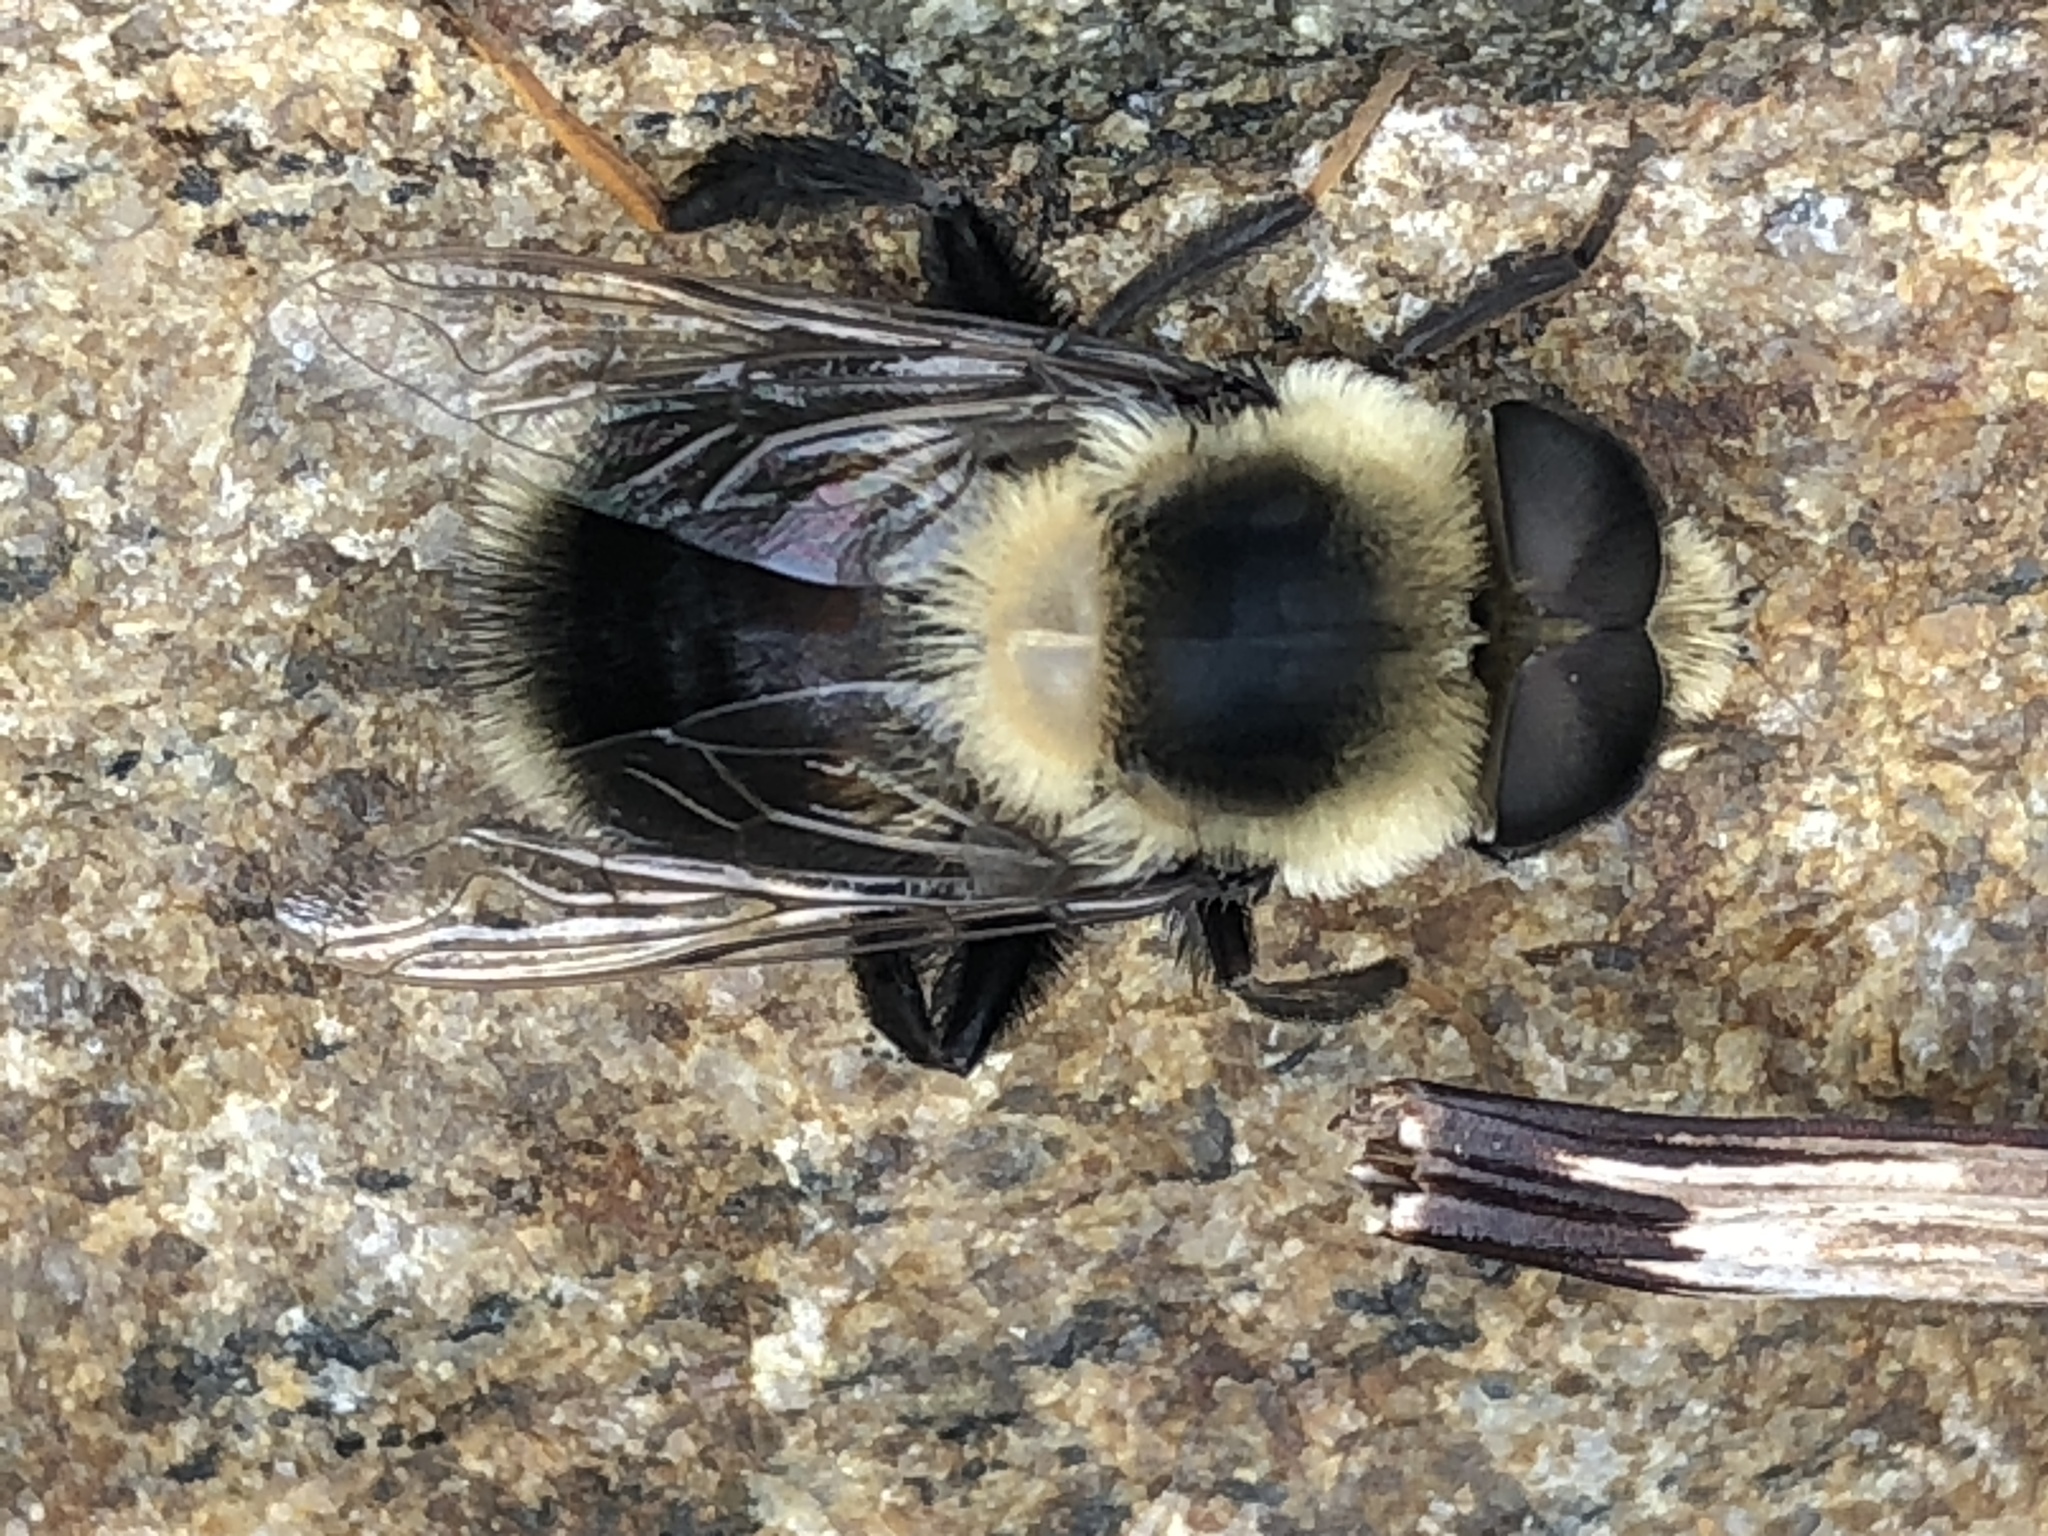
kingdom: Animalia
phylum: Arthropoda
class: Insecta
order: Diptera
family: Syrphidae
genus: Eristalis
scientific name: Eristalis flavipes
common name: Orange-legged drone fly
